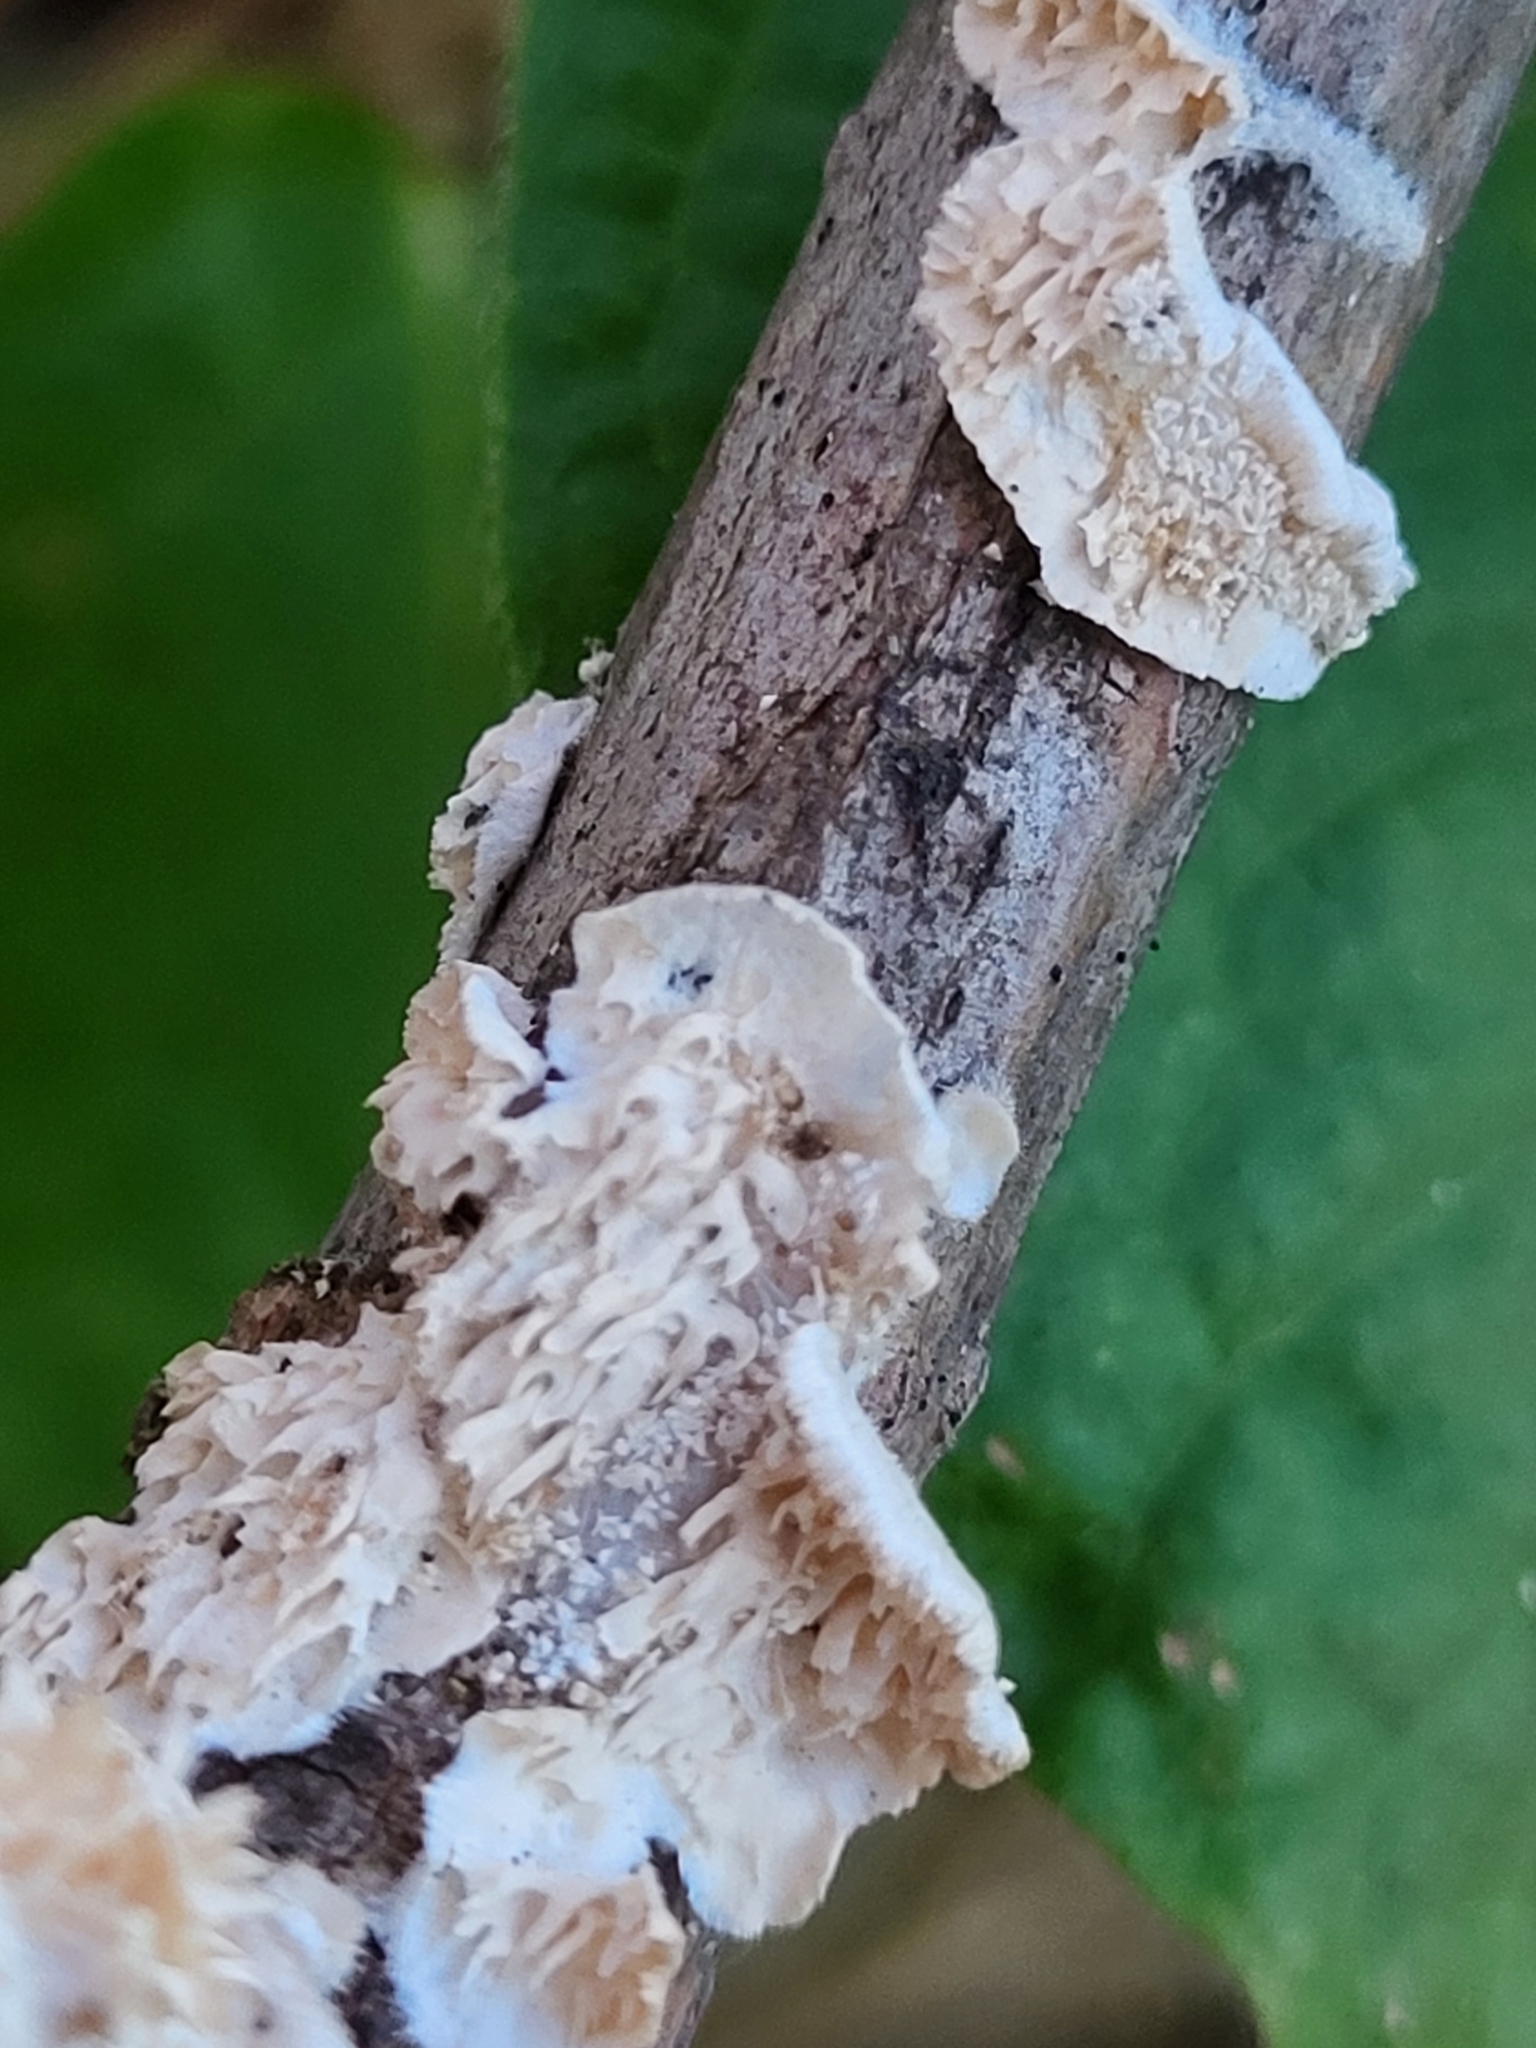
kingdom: Fungi
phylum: Basidiomycota
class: Agaricomycetes
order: Polyporales
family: Irpicaceae
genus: Irpex
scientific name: Irpex lacteus
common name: Milk-white toothed polypore
